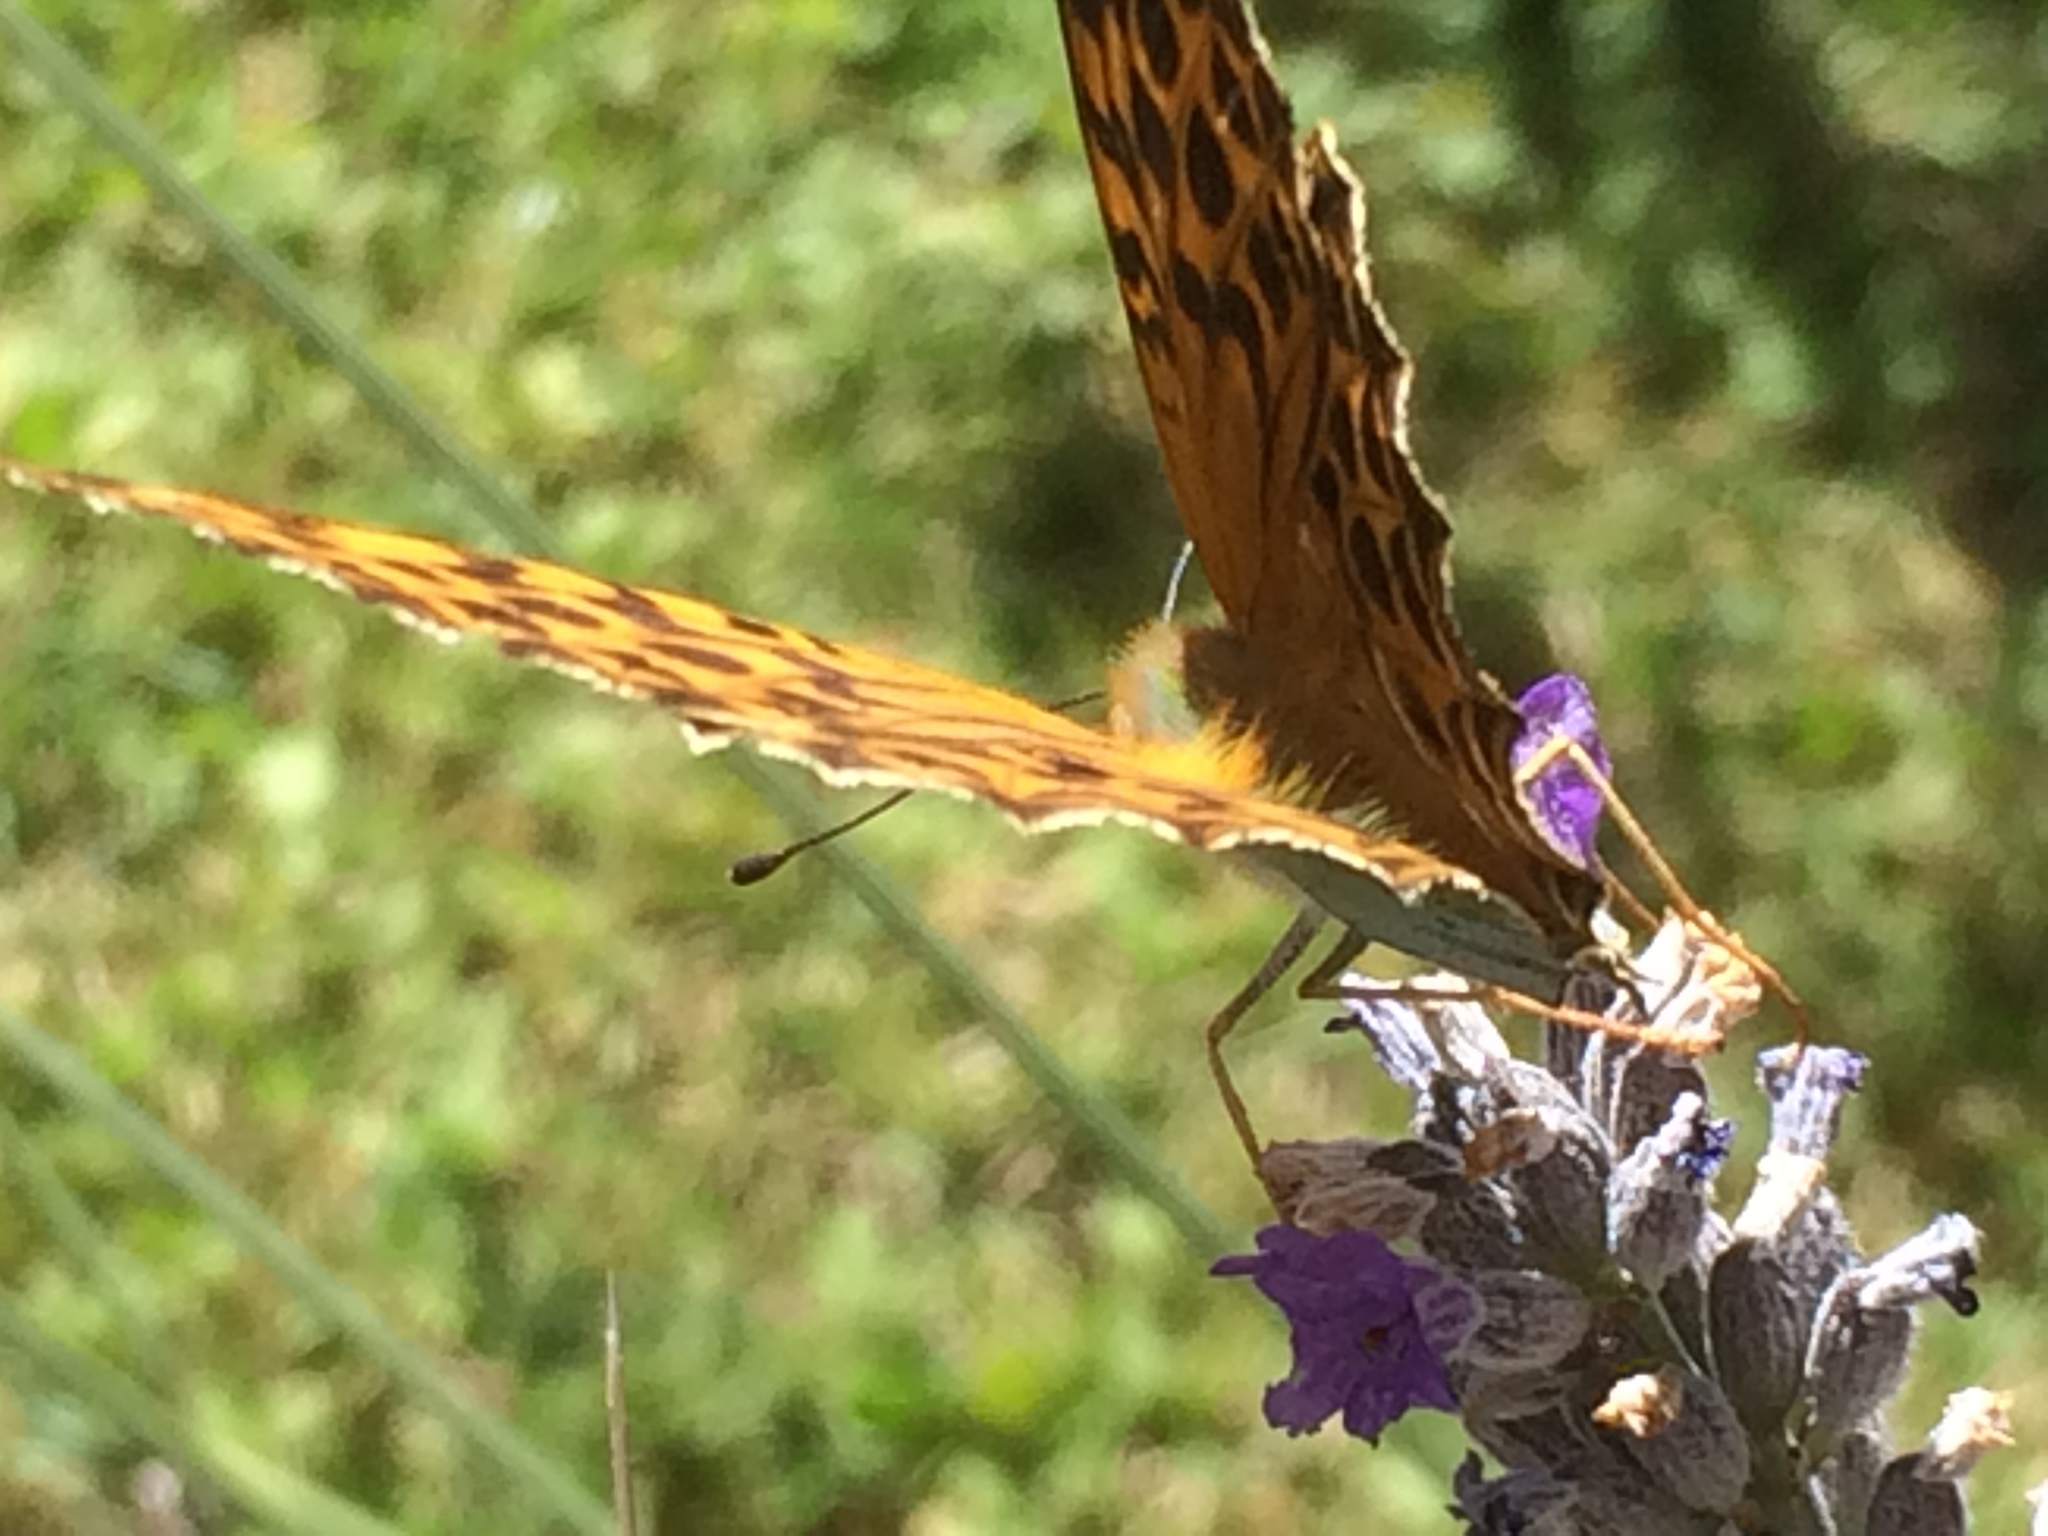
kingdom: Animalia
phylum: Arthropoda
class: Insecta
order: Lepidoptera
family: Nymphalidae
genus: Argynnis
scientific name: Argynnis paphia
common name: Silver-washed fritillary
